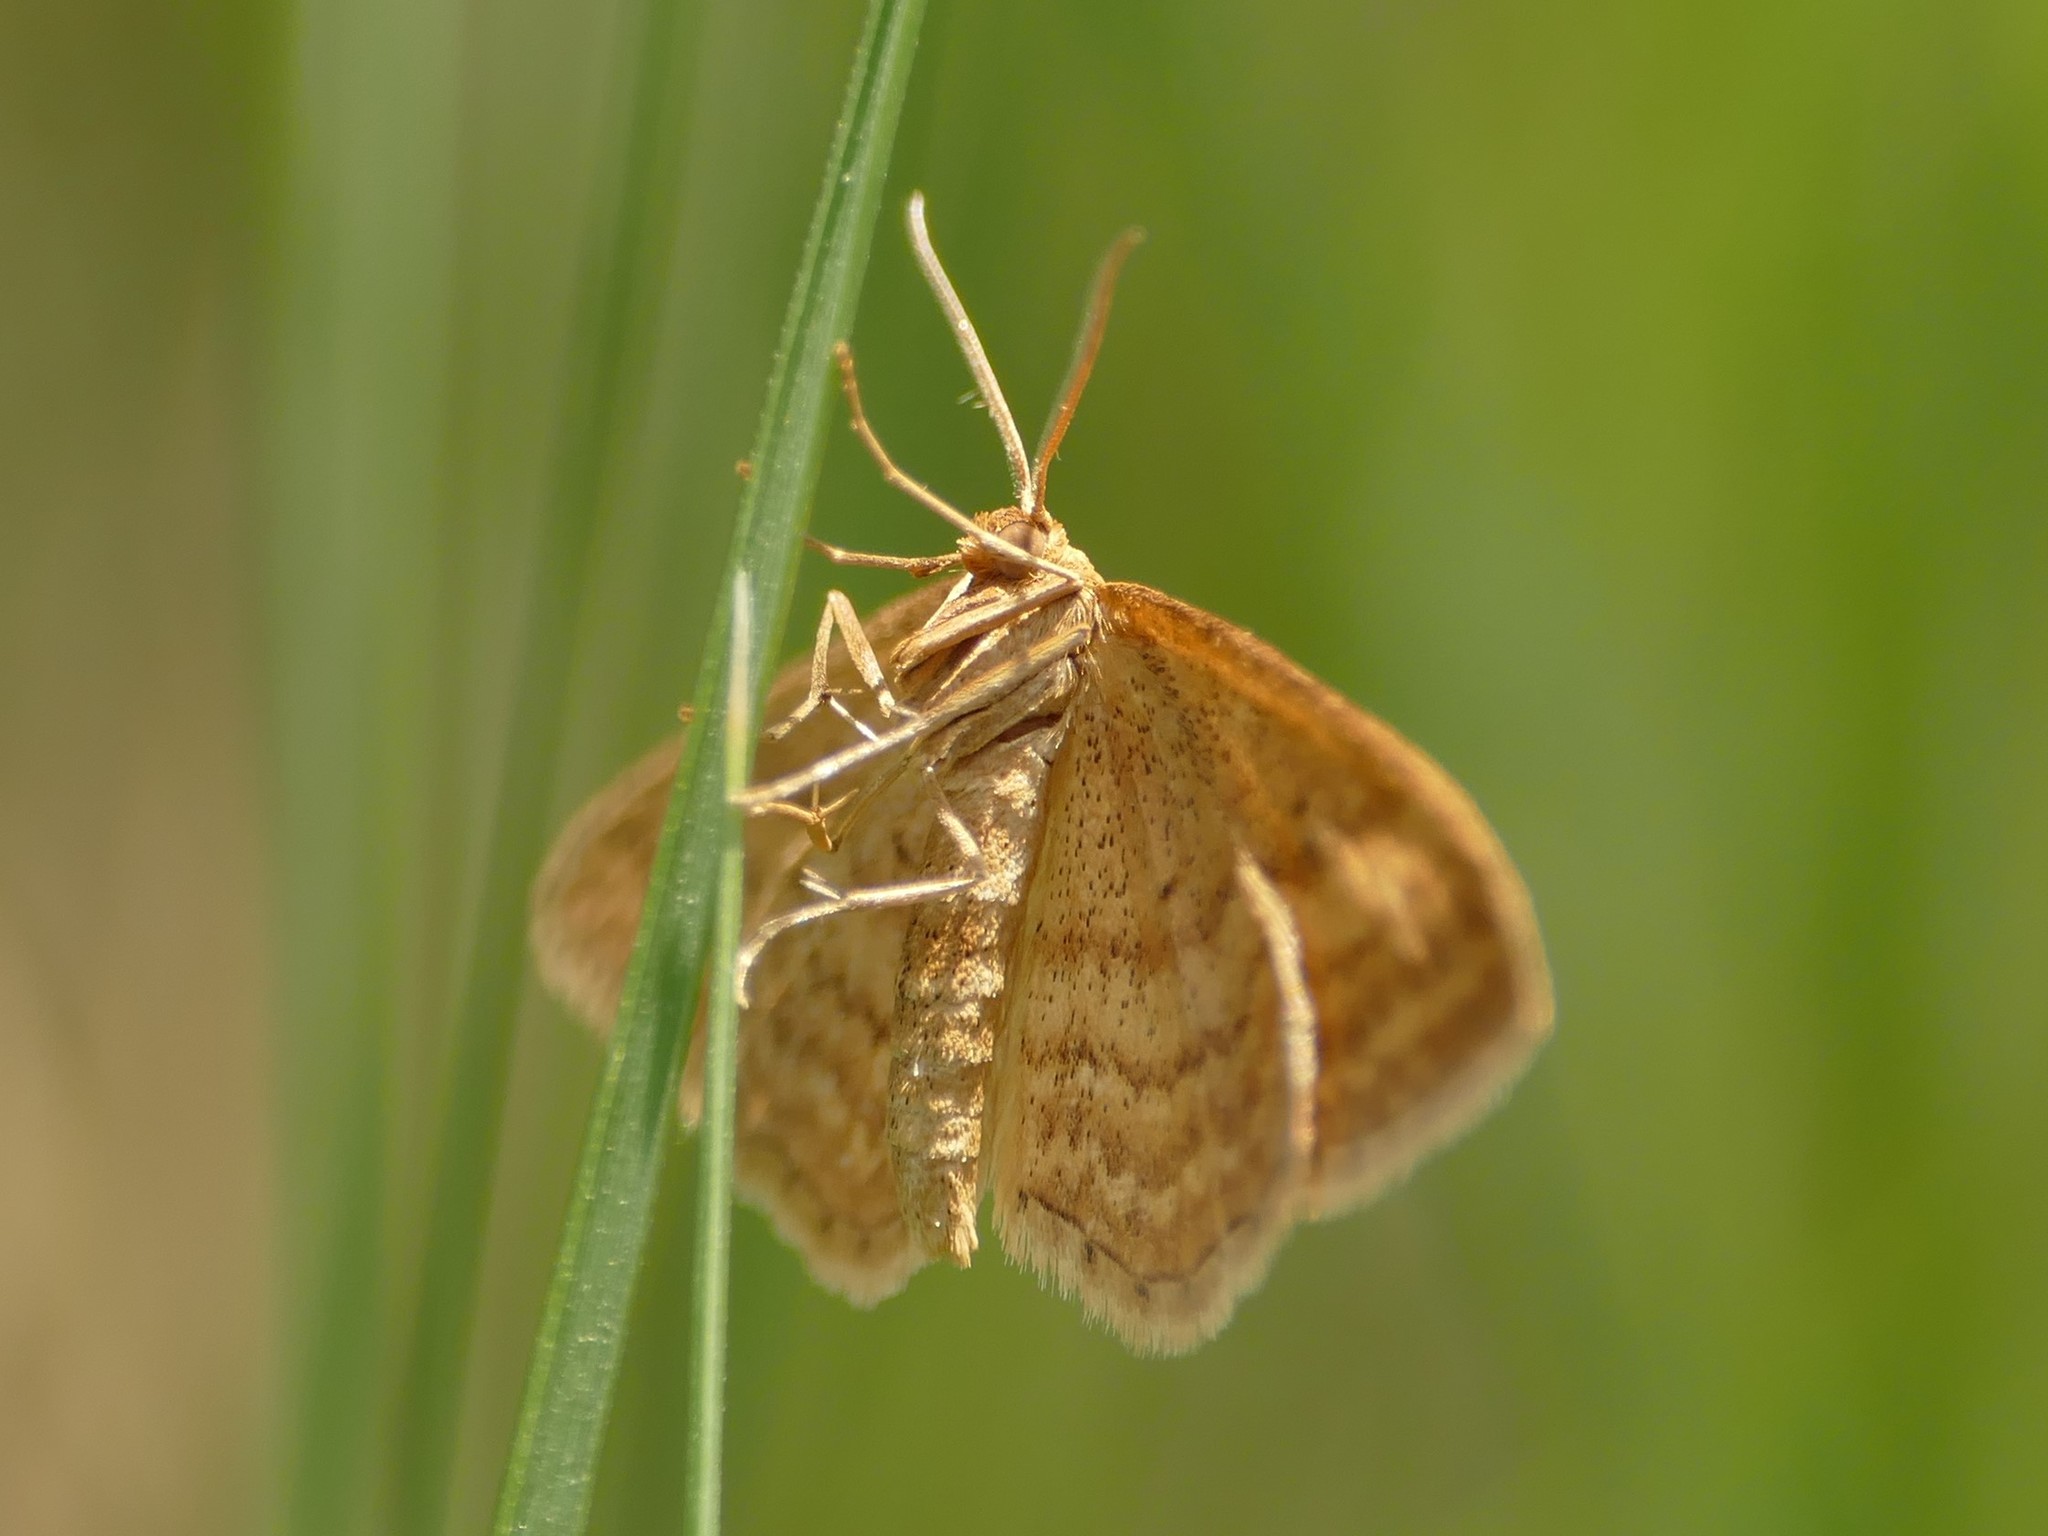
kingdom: Animalia
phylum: Arthropoda
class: Insecta
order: Lepidoptera
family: Geometridae
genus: Idaea
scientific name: Idaea ochrata
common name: Bright wave
